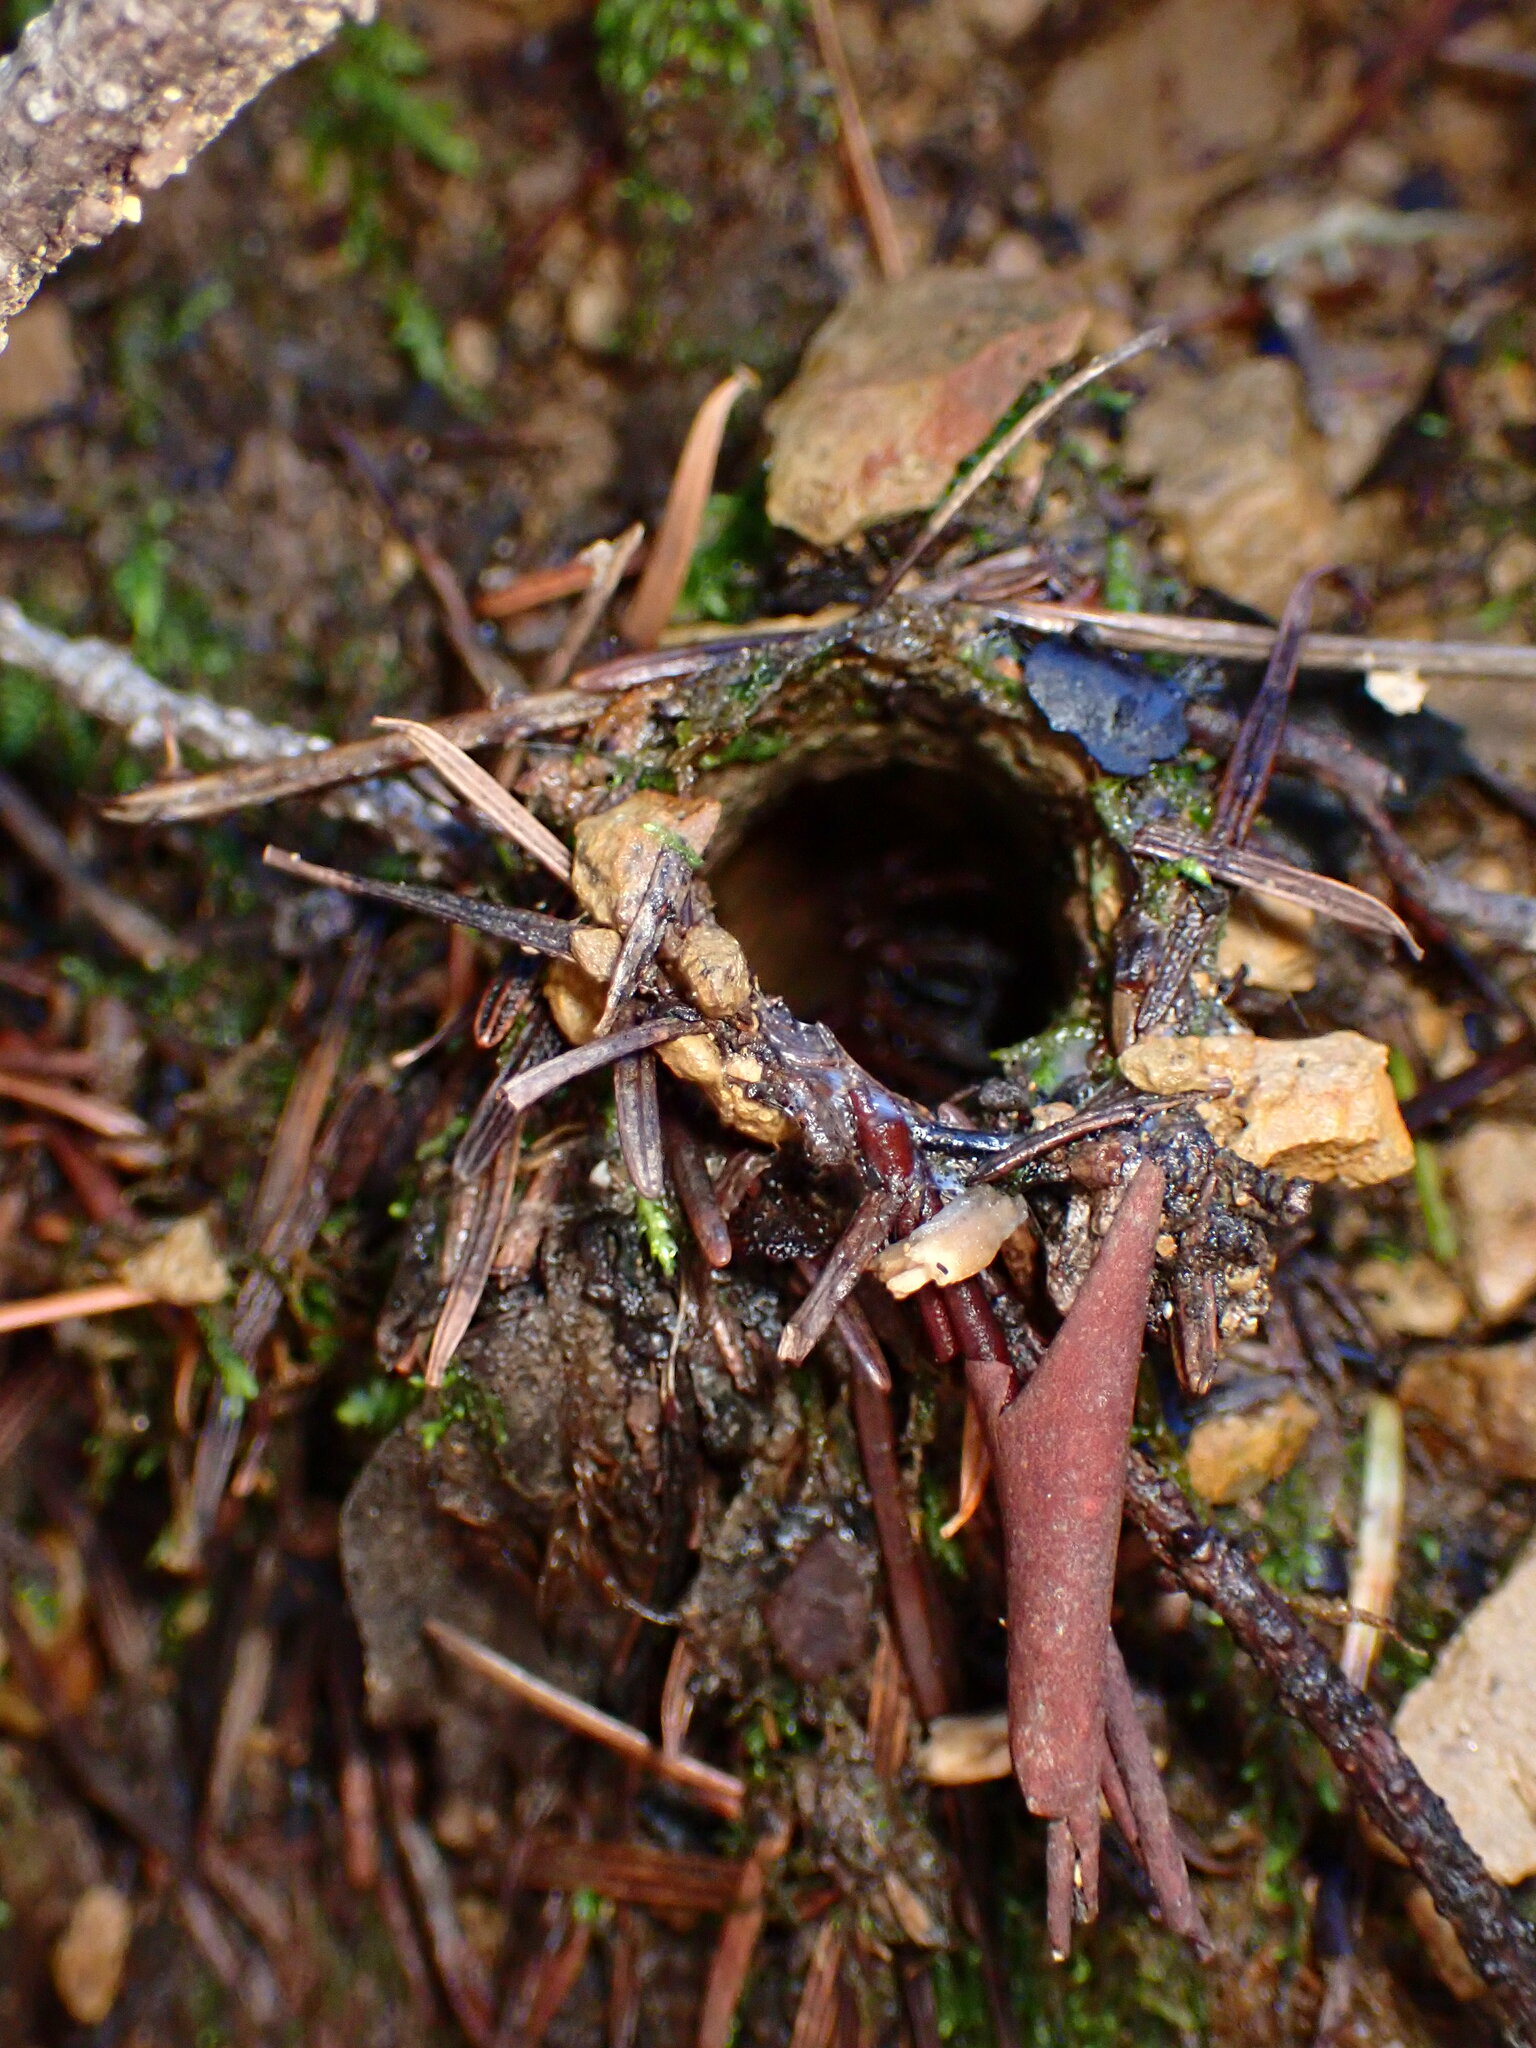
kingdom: Animalia
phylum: Arthropoda
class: Arachnida
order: Araneae
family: Antrodiaetidae
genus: Atypoides
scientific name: Atypoides riversi
